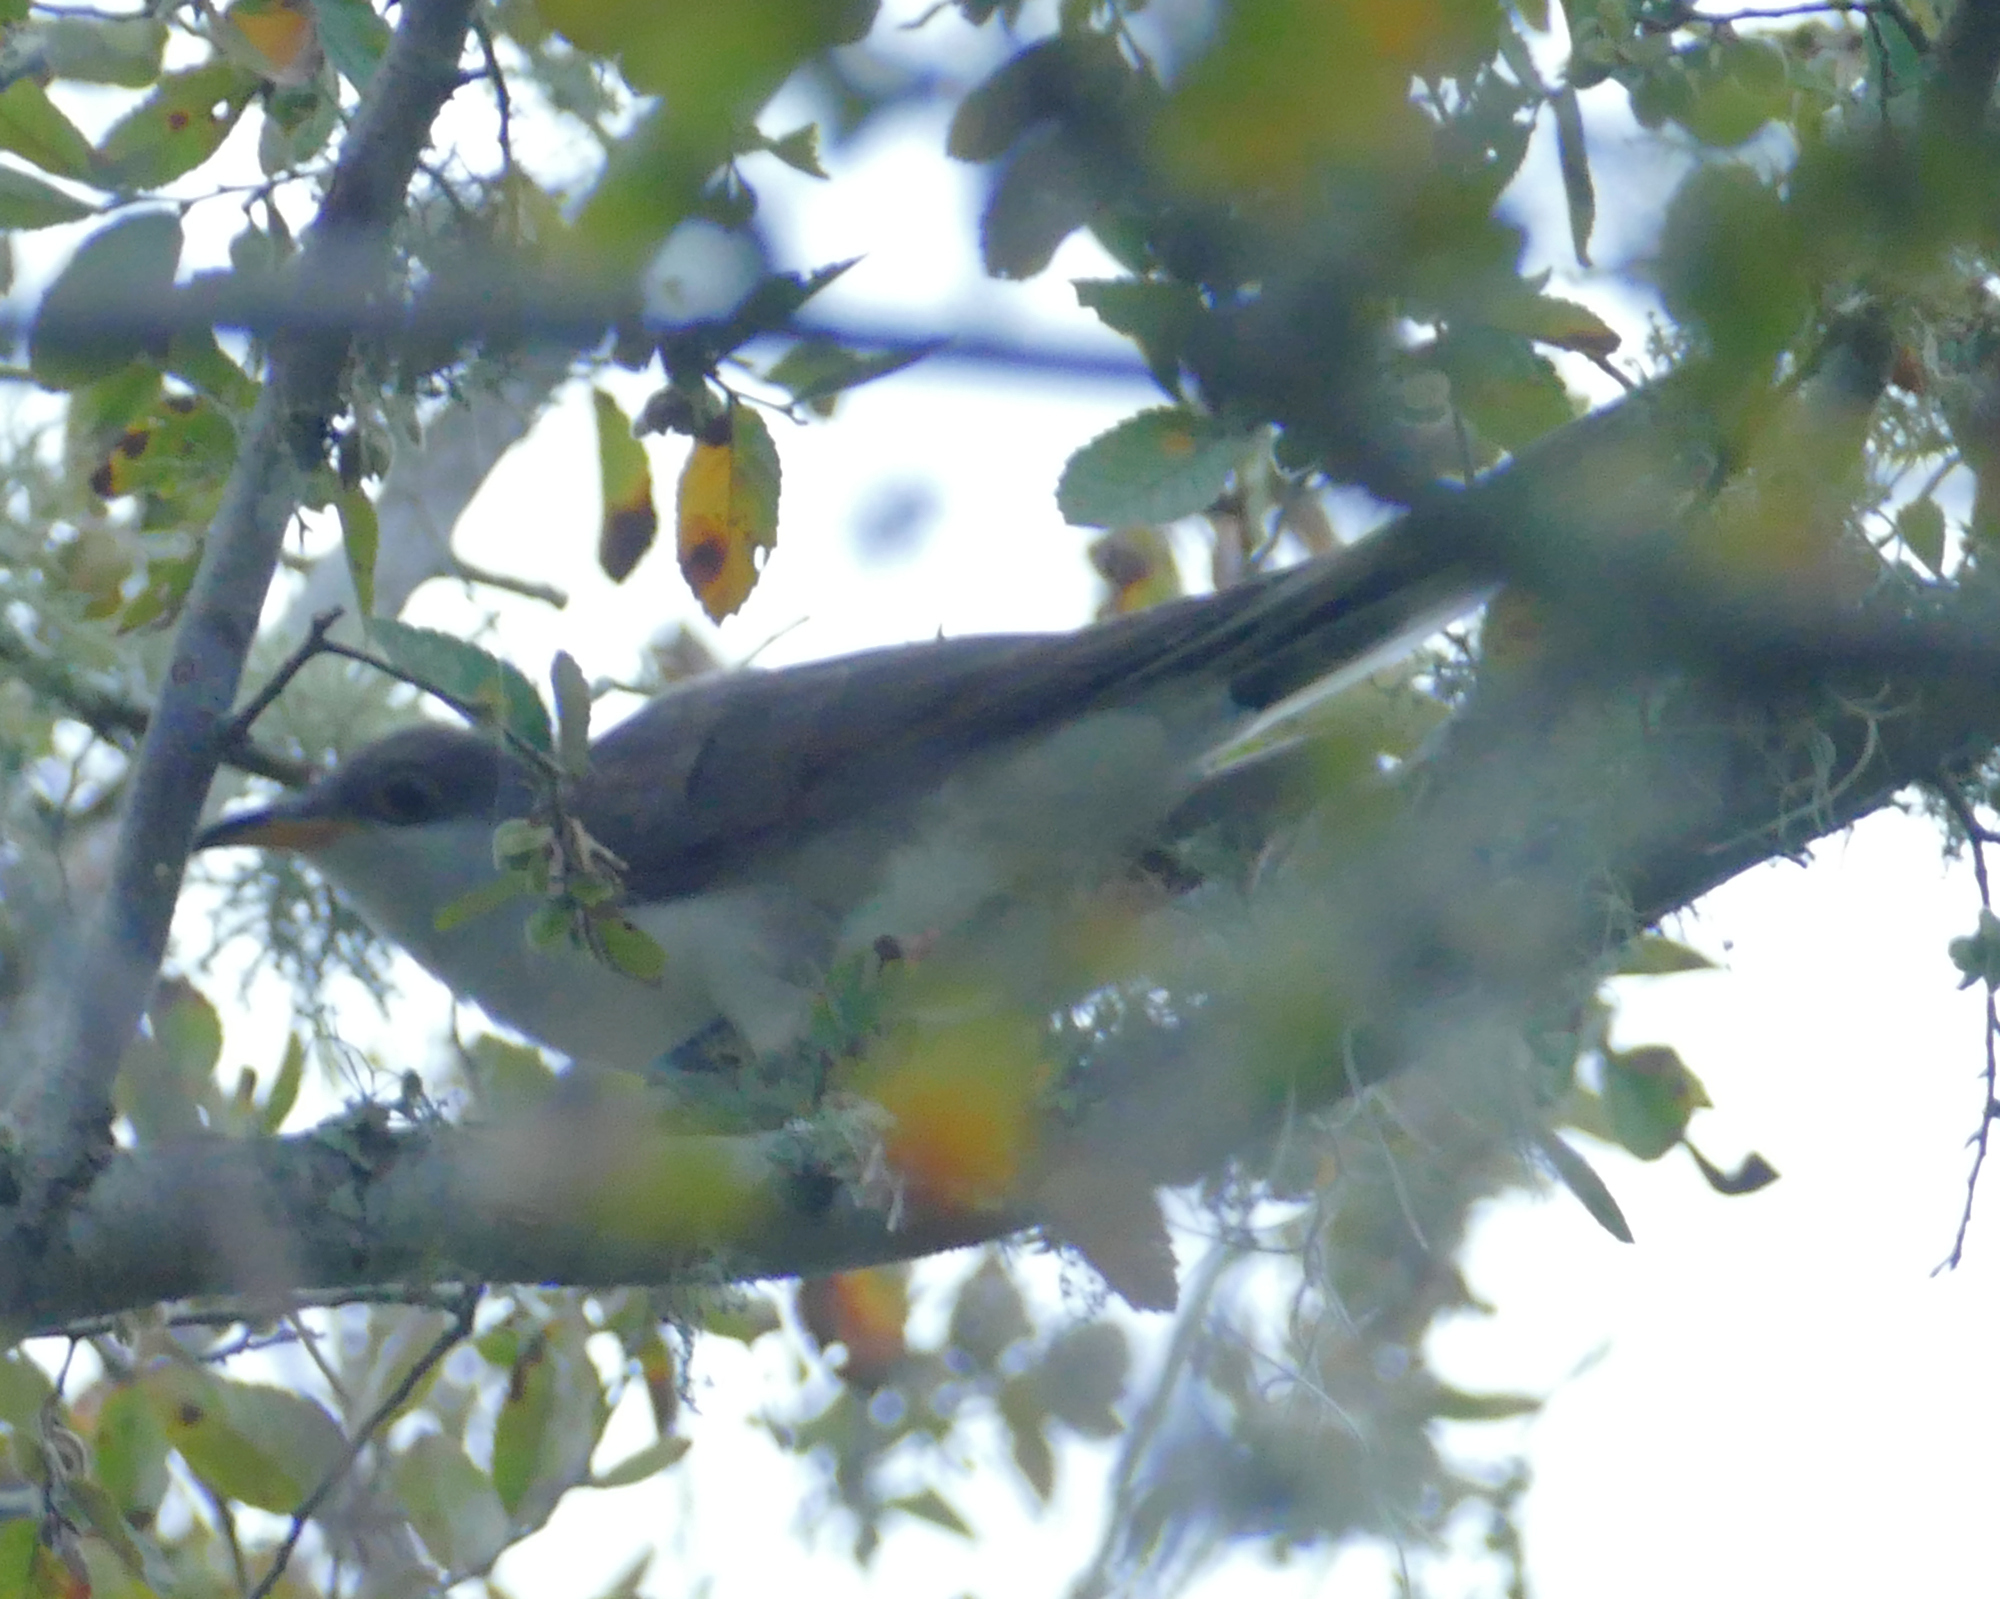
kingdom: Animalia
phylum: Chordata
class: Aves
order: Cuculiformes
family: Cuculidae
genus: Coccyzus
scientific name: Coccyzus americanus
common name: Yellow-billed cuckoo
